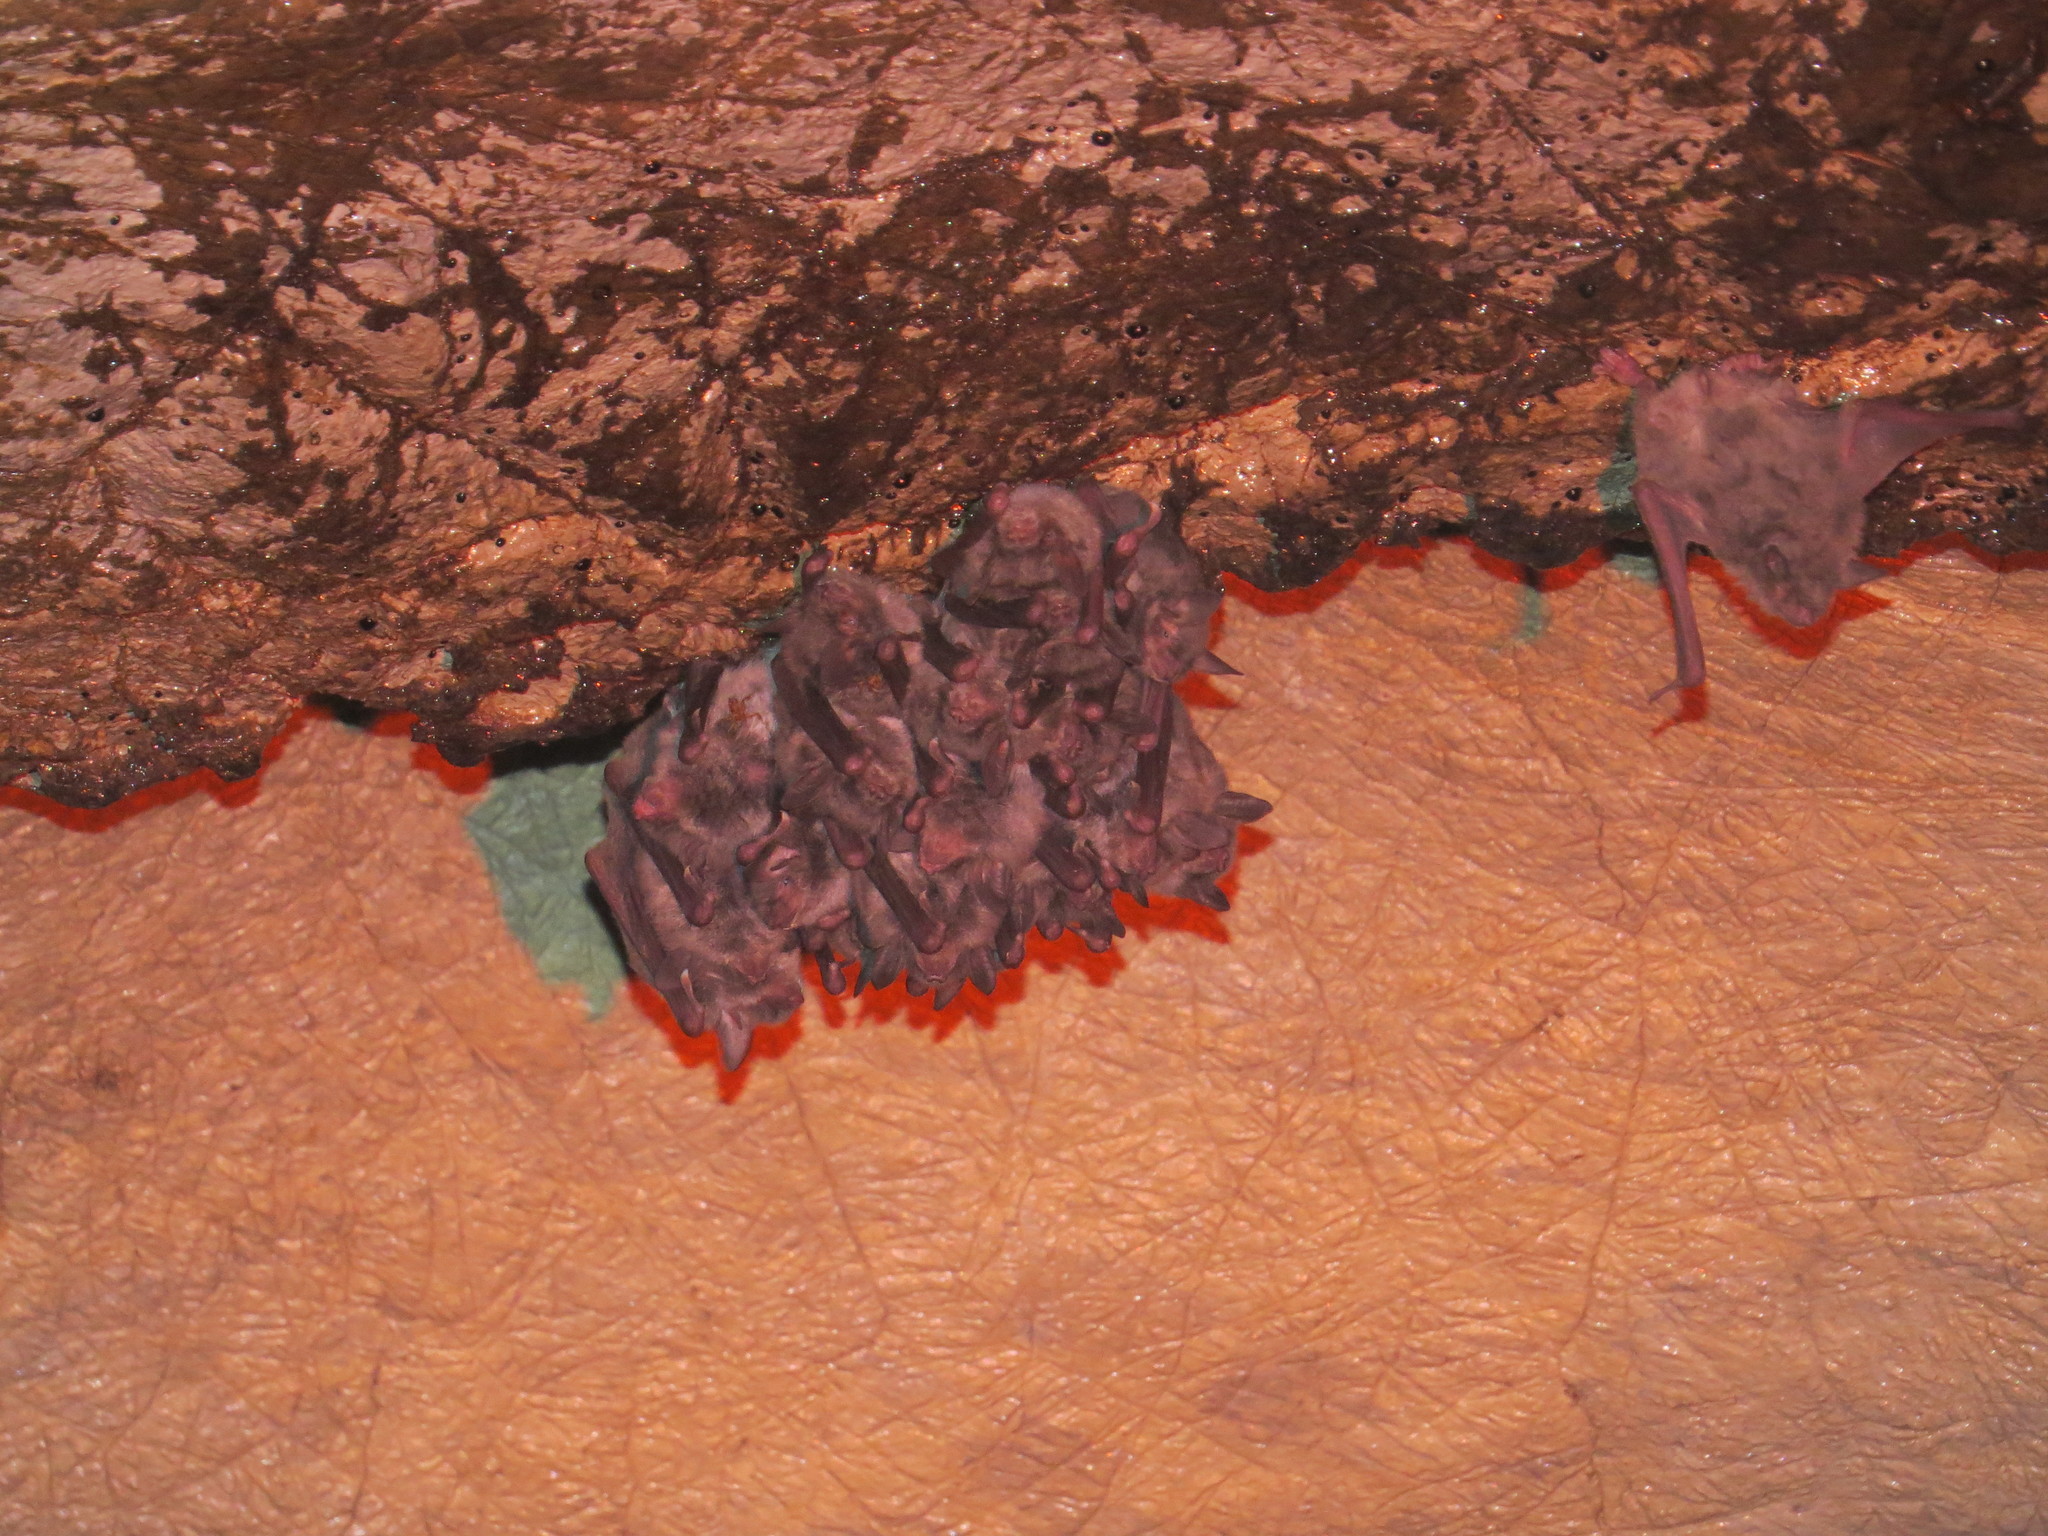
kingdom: Animalia
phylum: Chordata
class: Mammalia
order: Chiroptera
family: Vespertilionidae
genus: Myotis
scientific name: Myotis capaccinii
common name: Long-fingered bat
